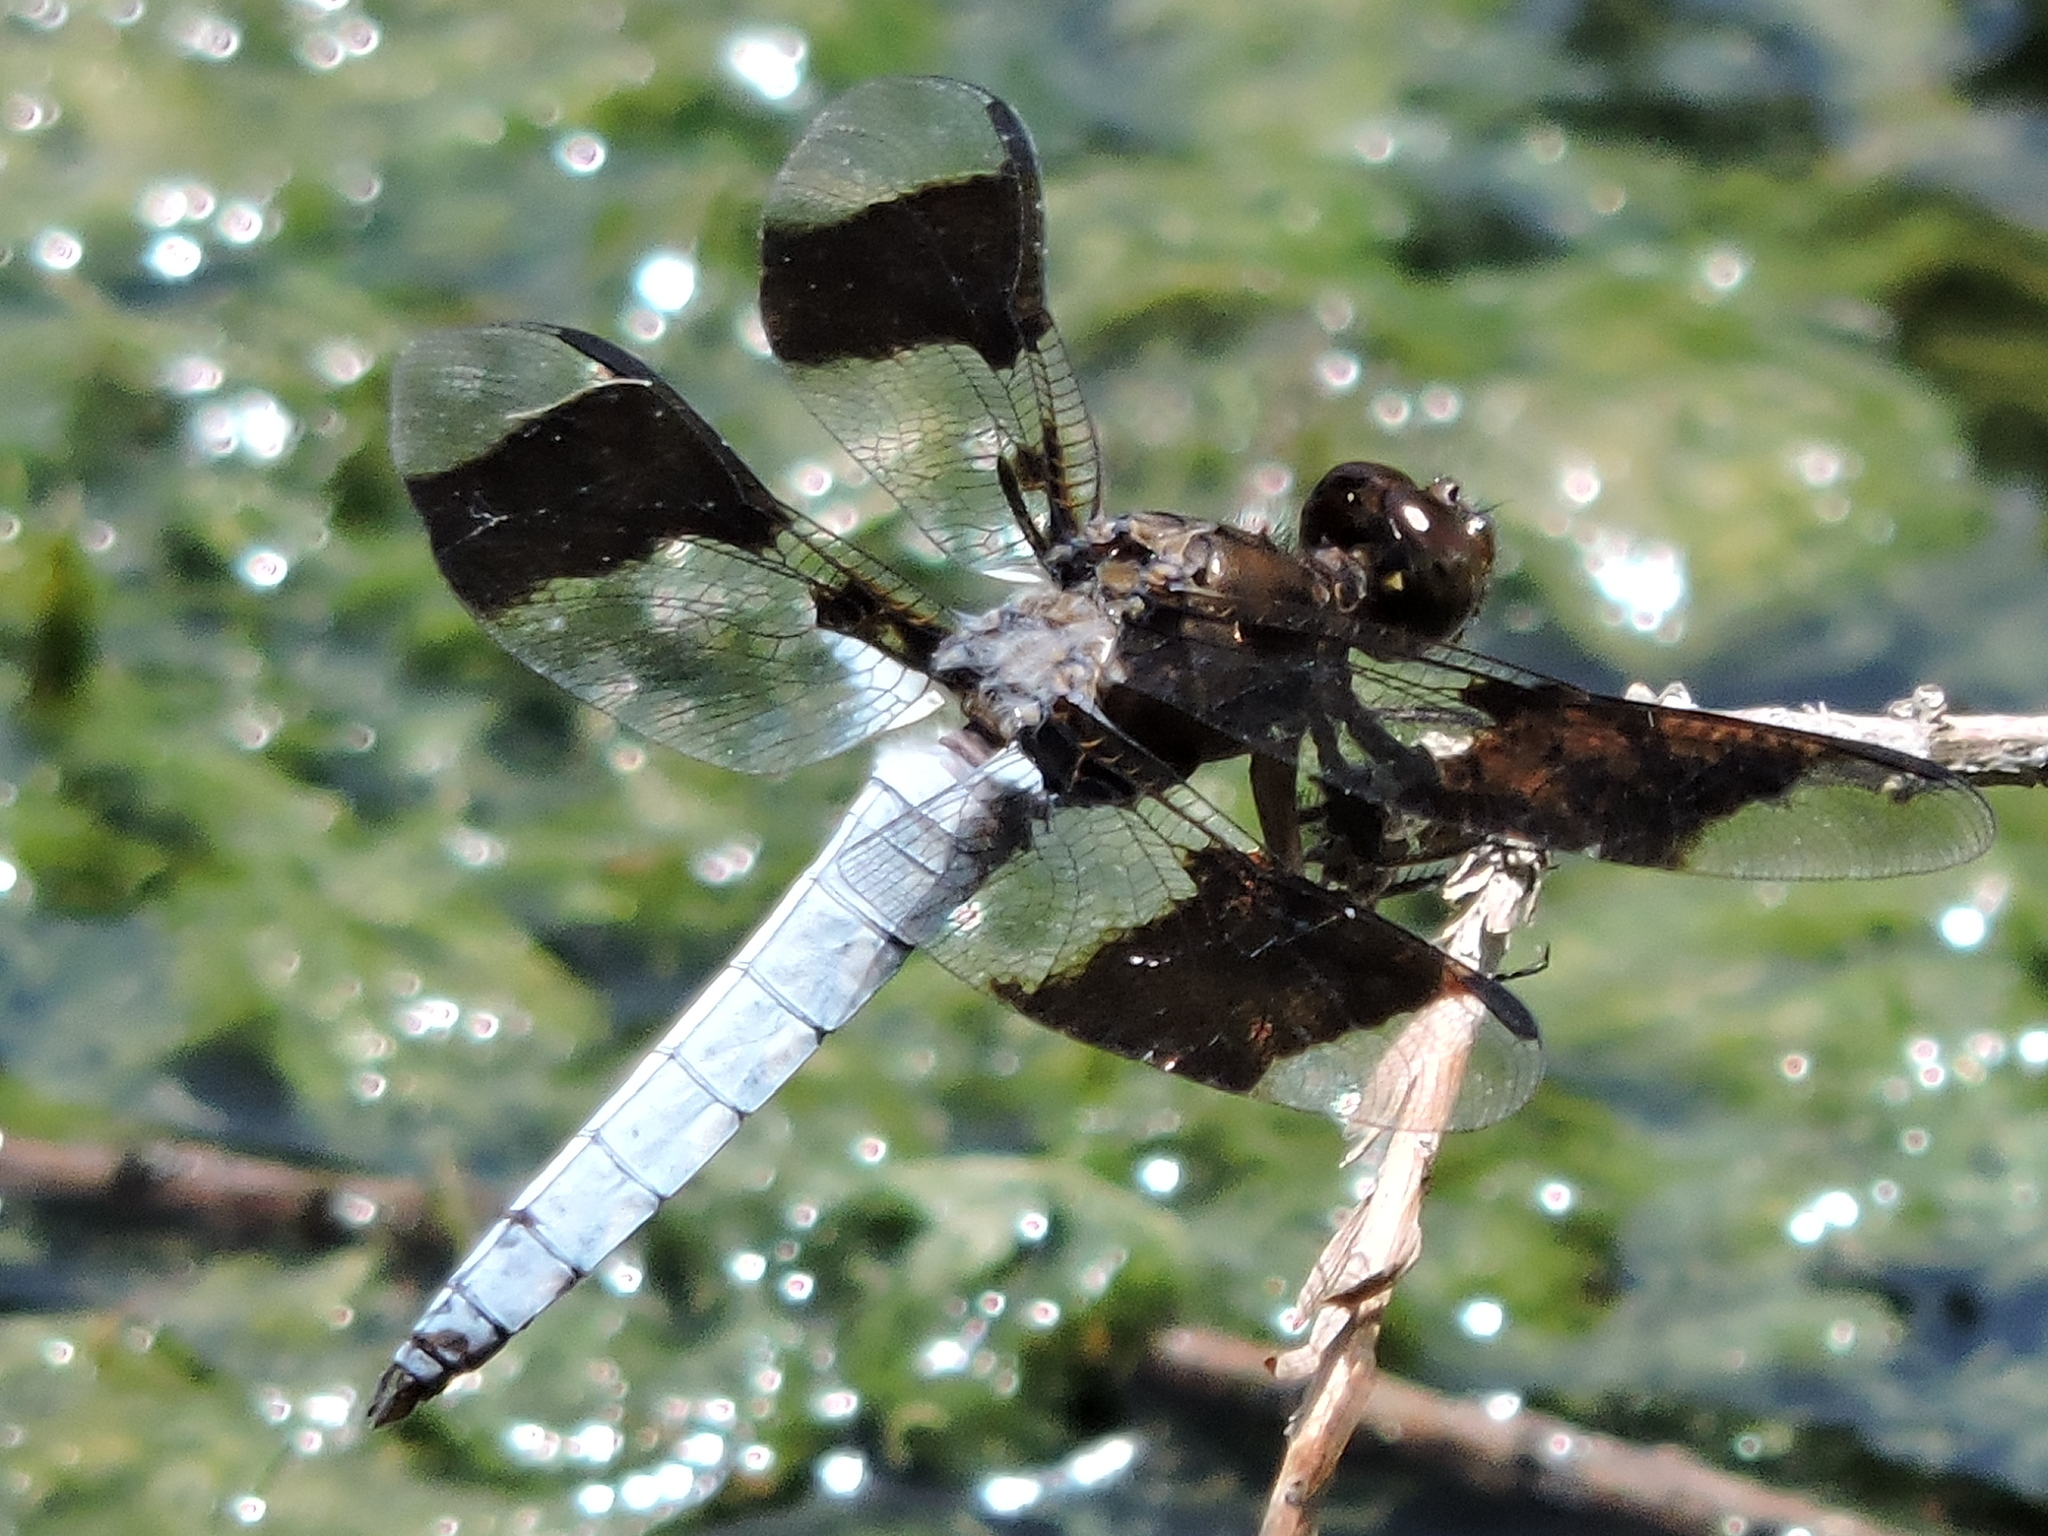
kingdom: Animalia
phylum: Arthropoda
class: Insecta
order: Odonata
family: Libellulidae
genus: Plathemis
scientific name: Plathemis lydia
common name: Common whitetail
